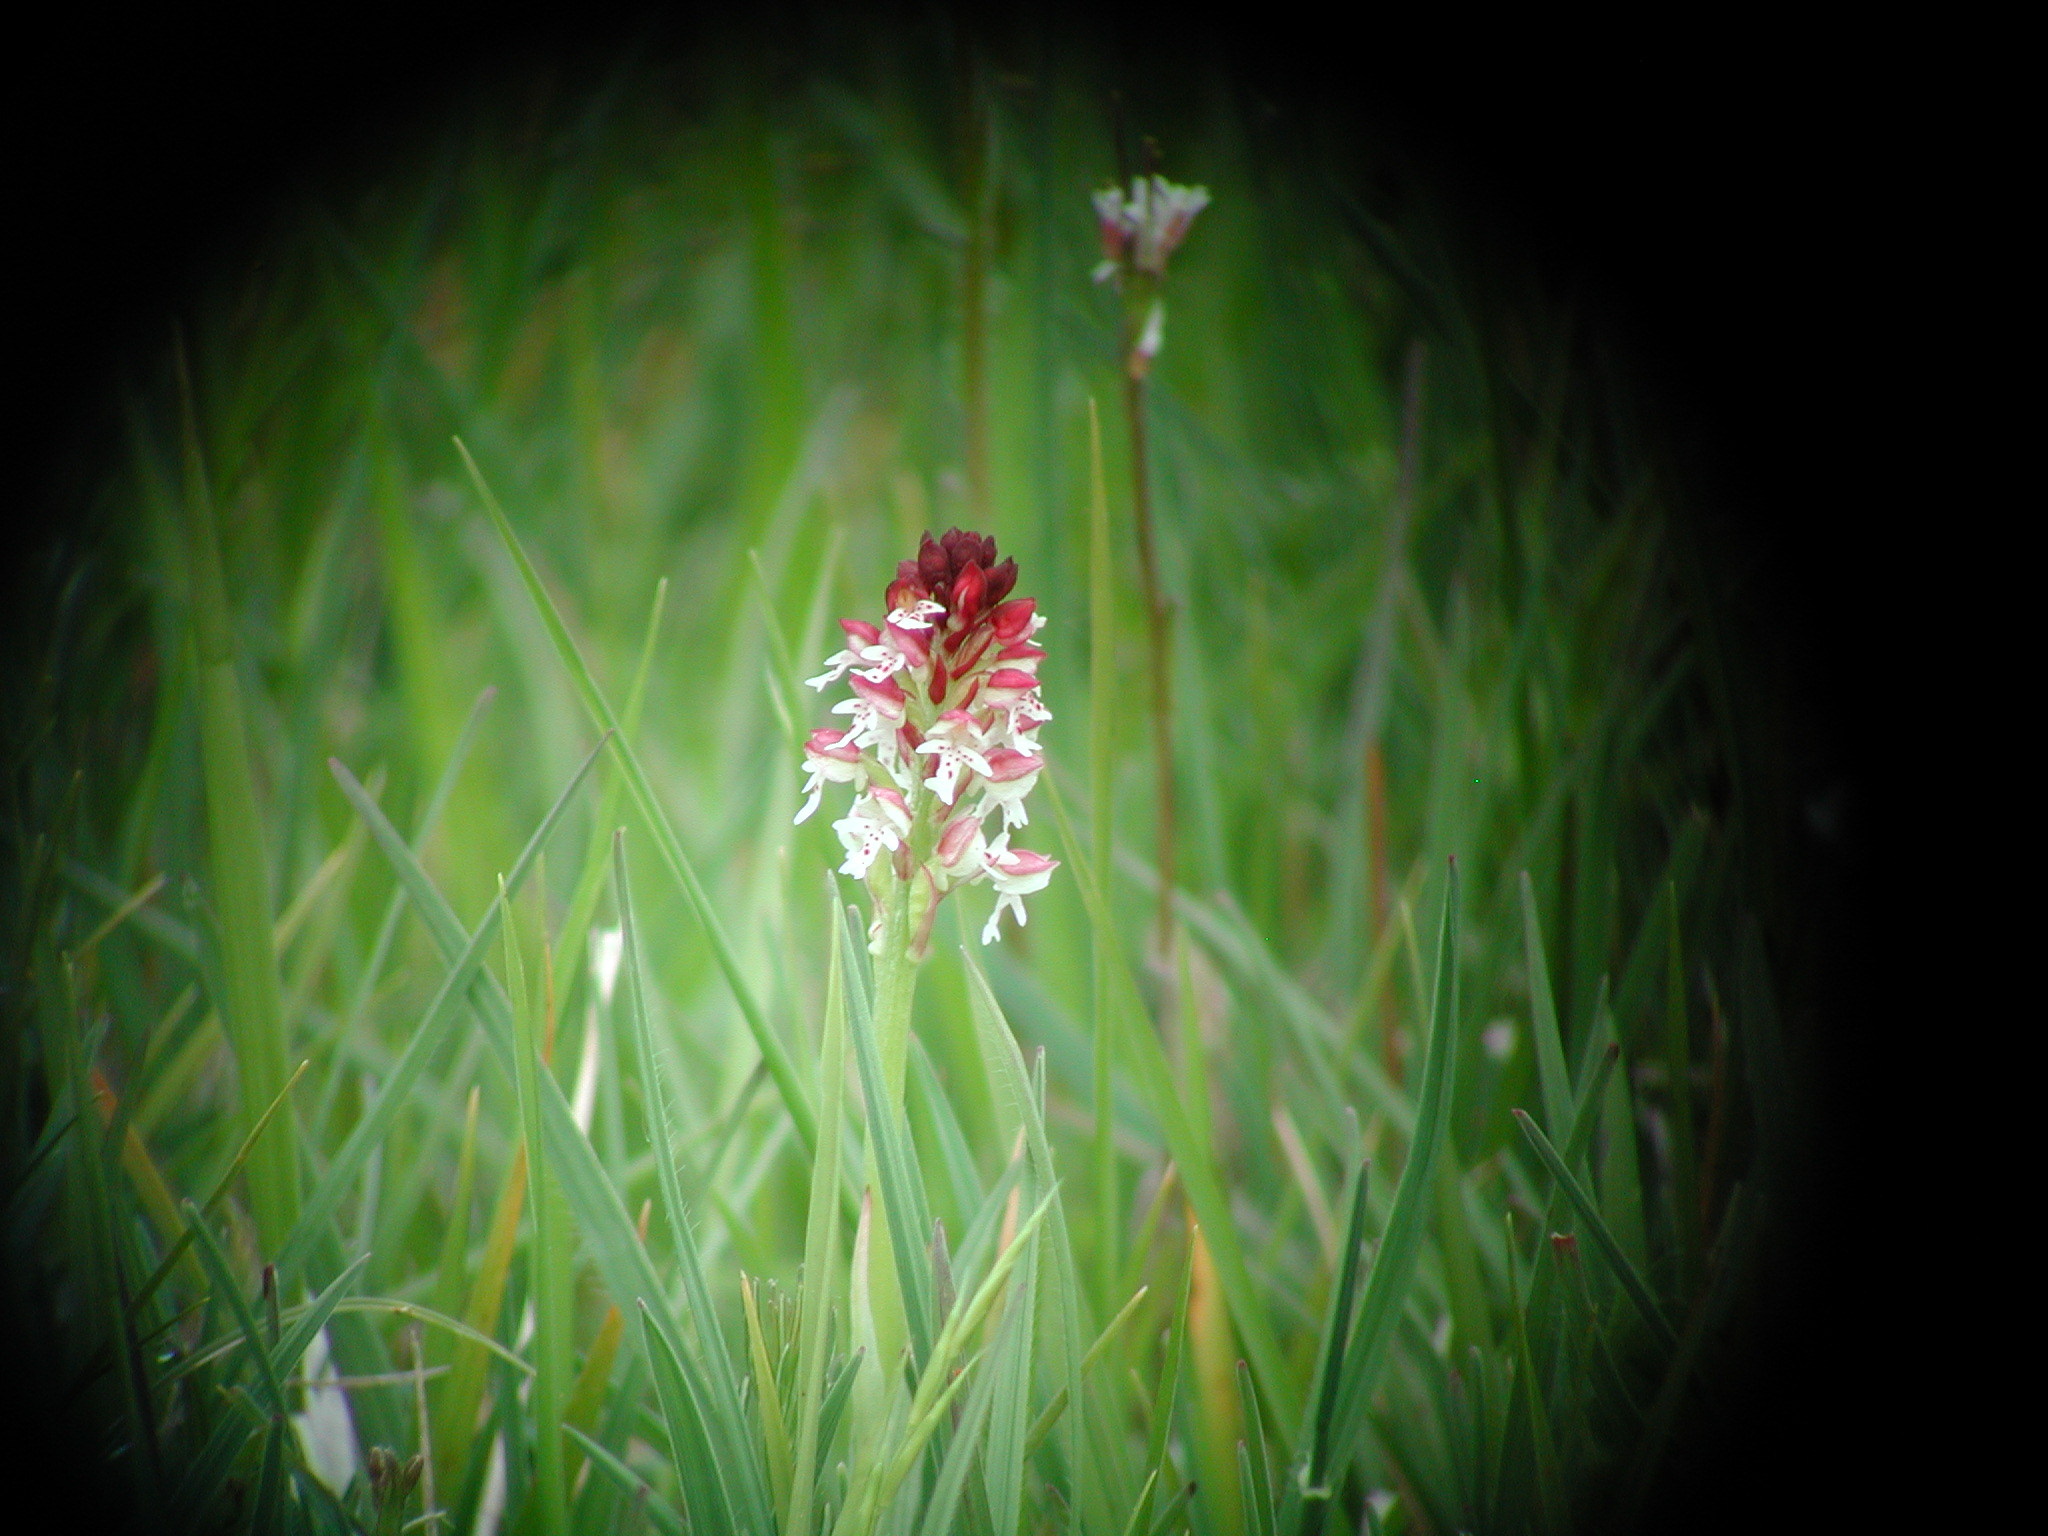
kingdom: Plantae
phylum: Tracheophyta
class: Liliopsida
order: Asparagales
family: Orchidaceae
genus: Neotinea
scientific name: Neotinea ustulata
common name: Burnt orchid
